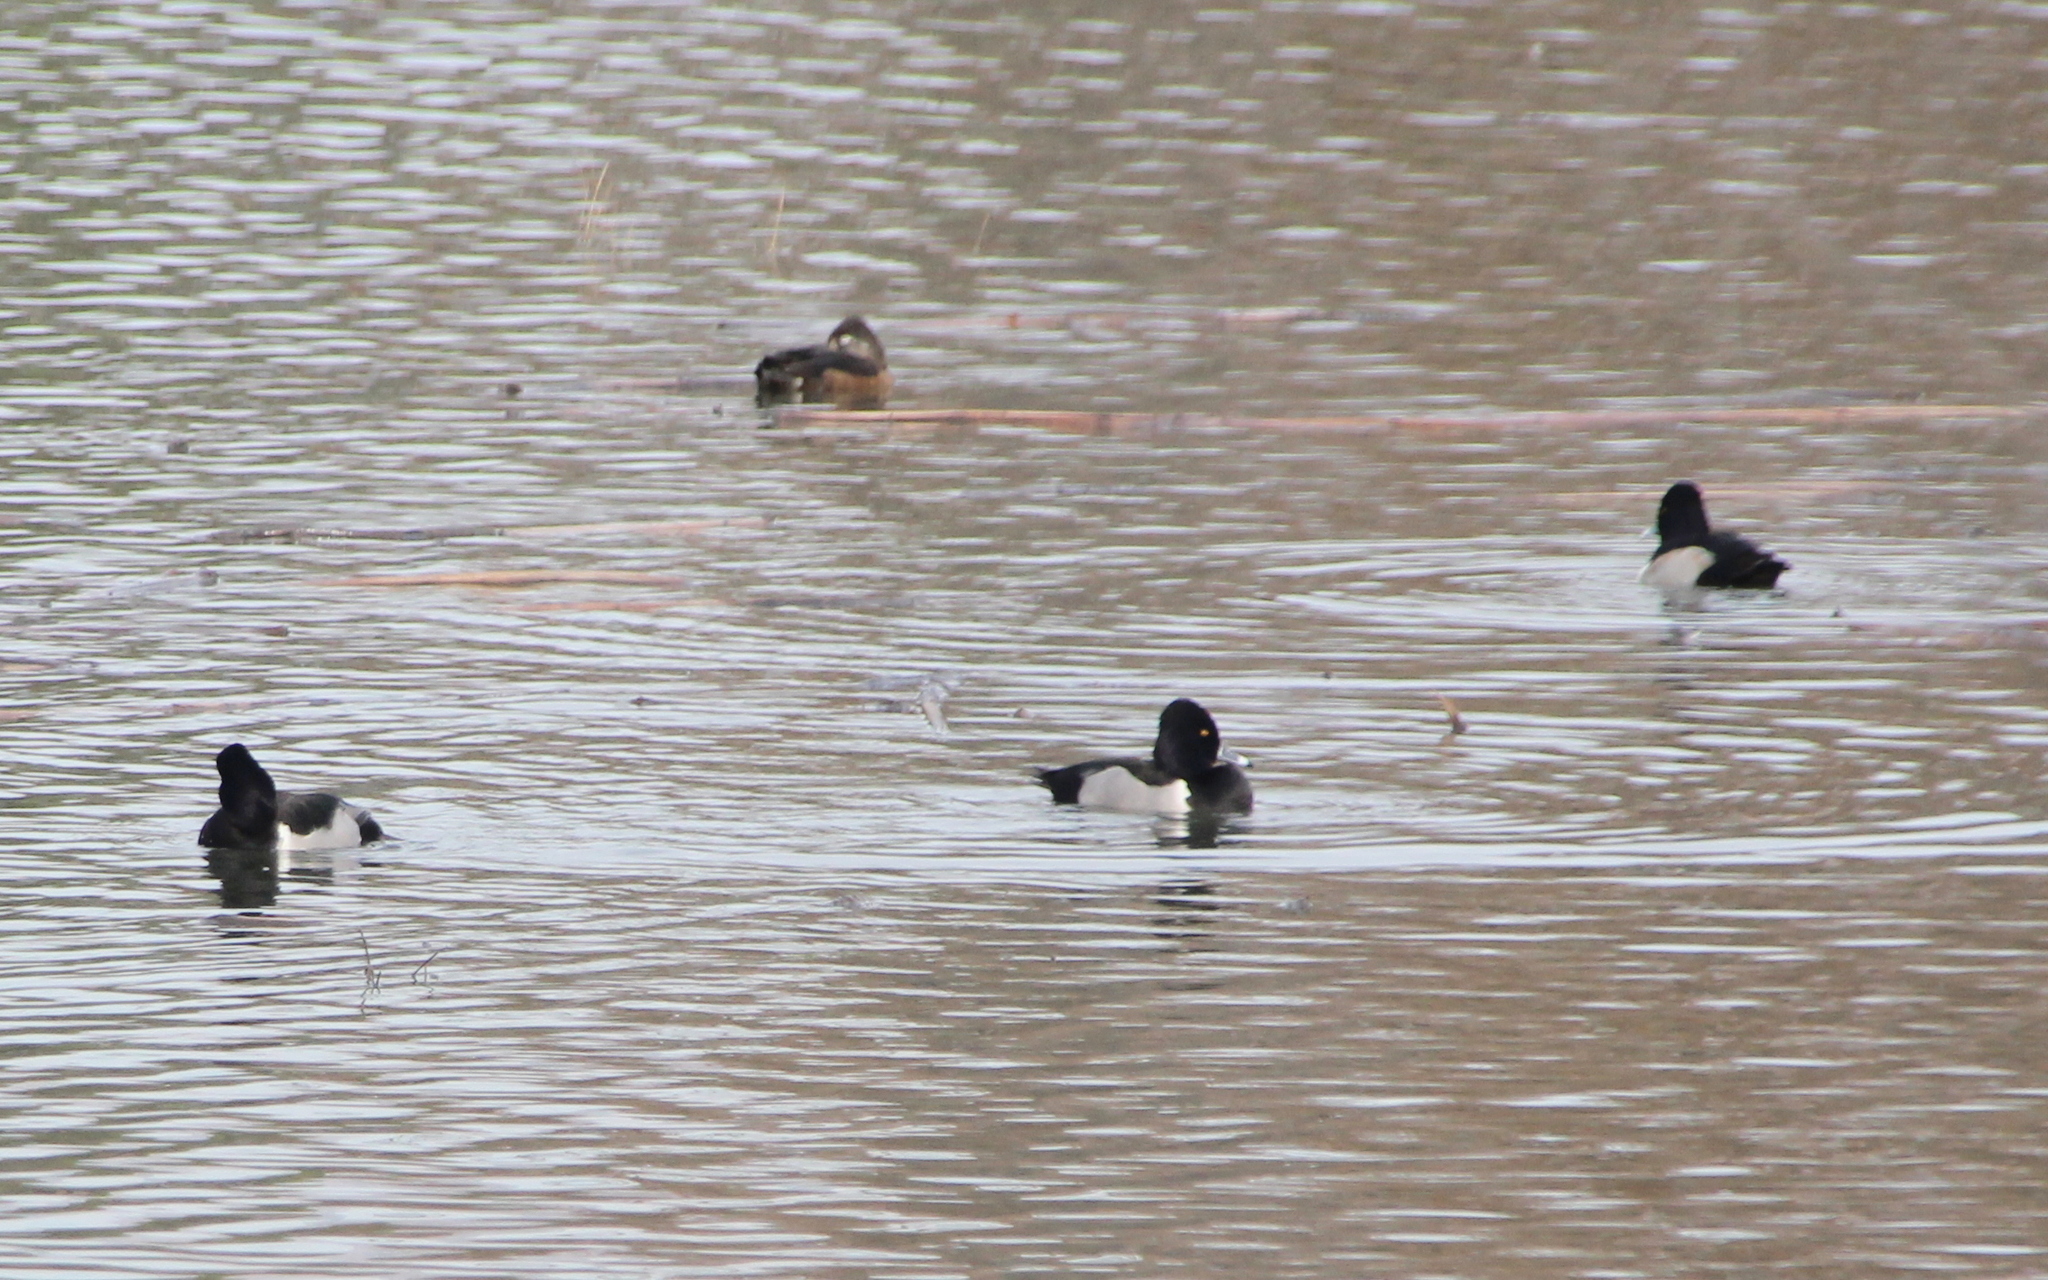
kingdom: Animalia
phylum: Chordata
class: Aves
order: Anseriformes
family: Anatidae
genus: Aythya
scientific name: Aythya collaris
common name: Ring-necked duck
